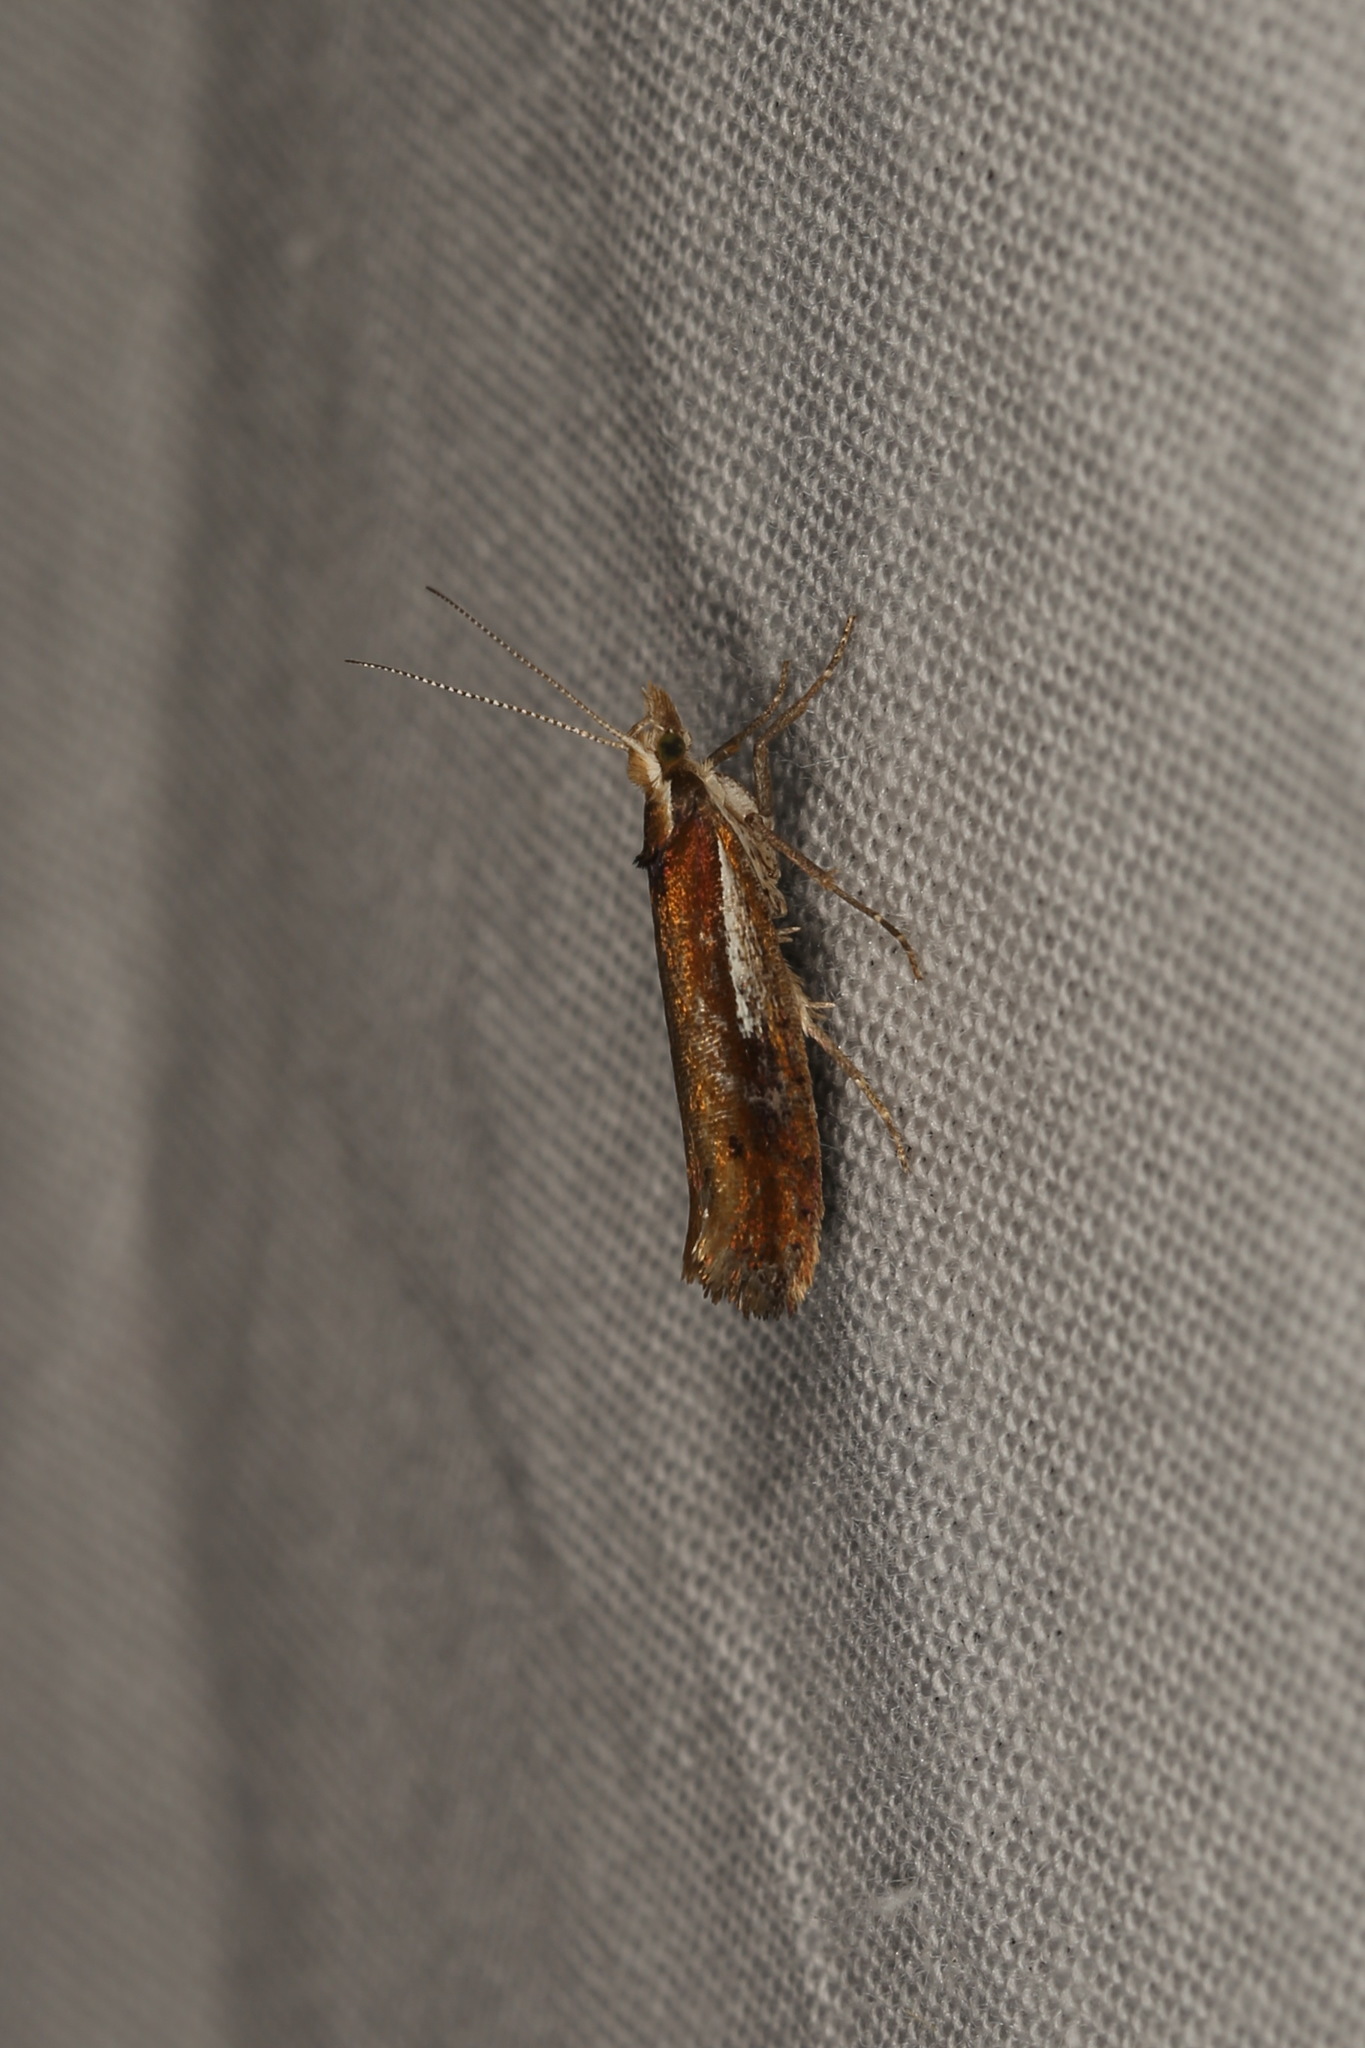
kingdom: Animalia
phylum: Arthropoda
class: Insecta
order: Lepidoptera
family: Ypsolophidae
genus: Ypsolopha
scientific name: Ypsolopha parenthesella
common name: White-shouldered smudge
